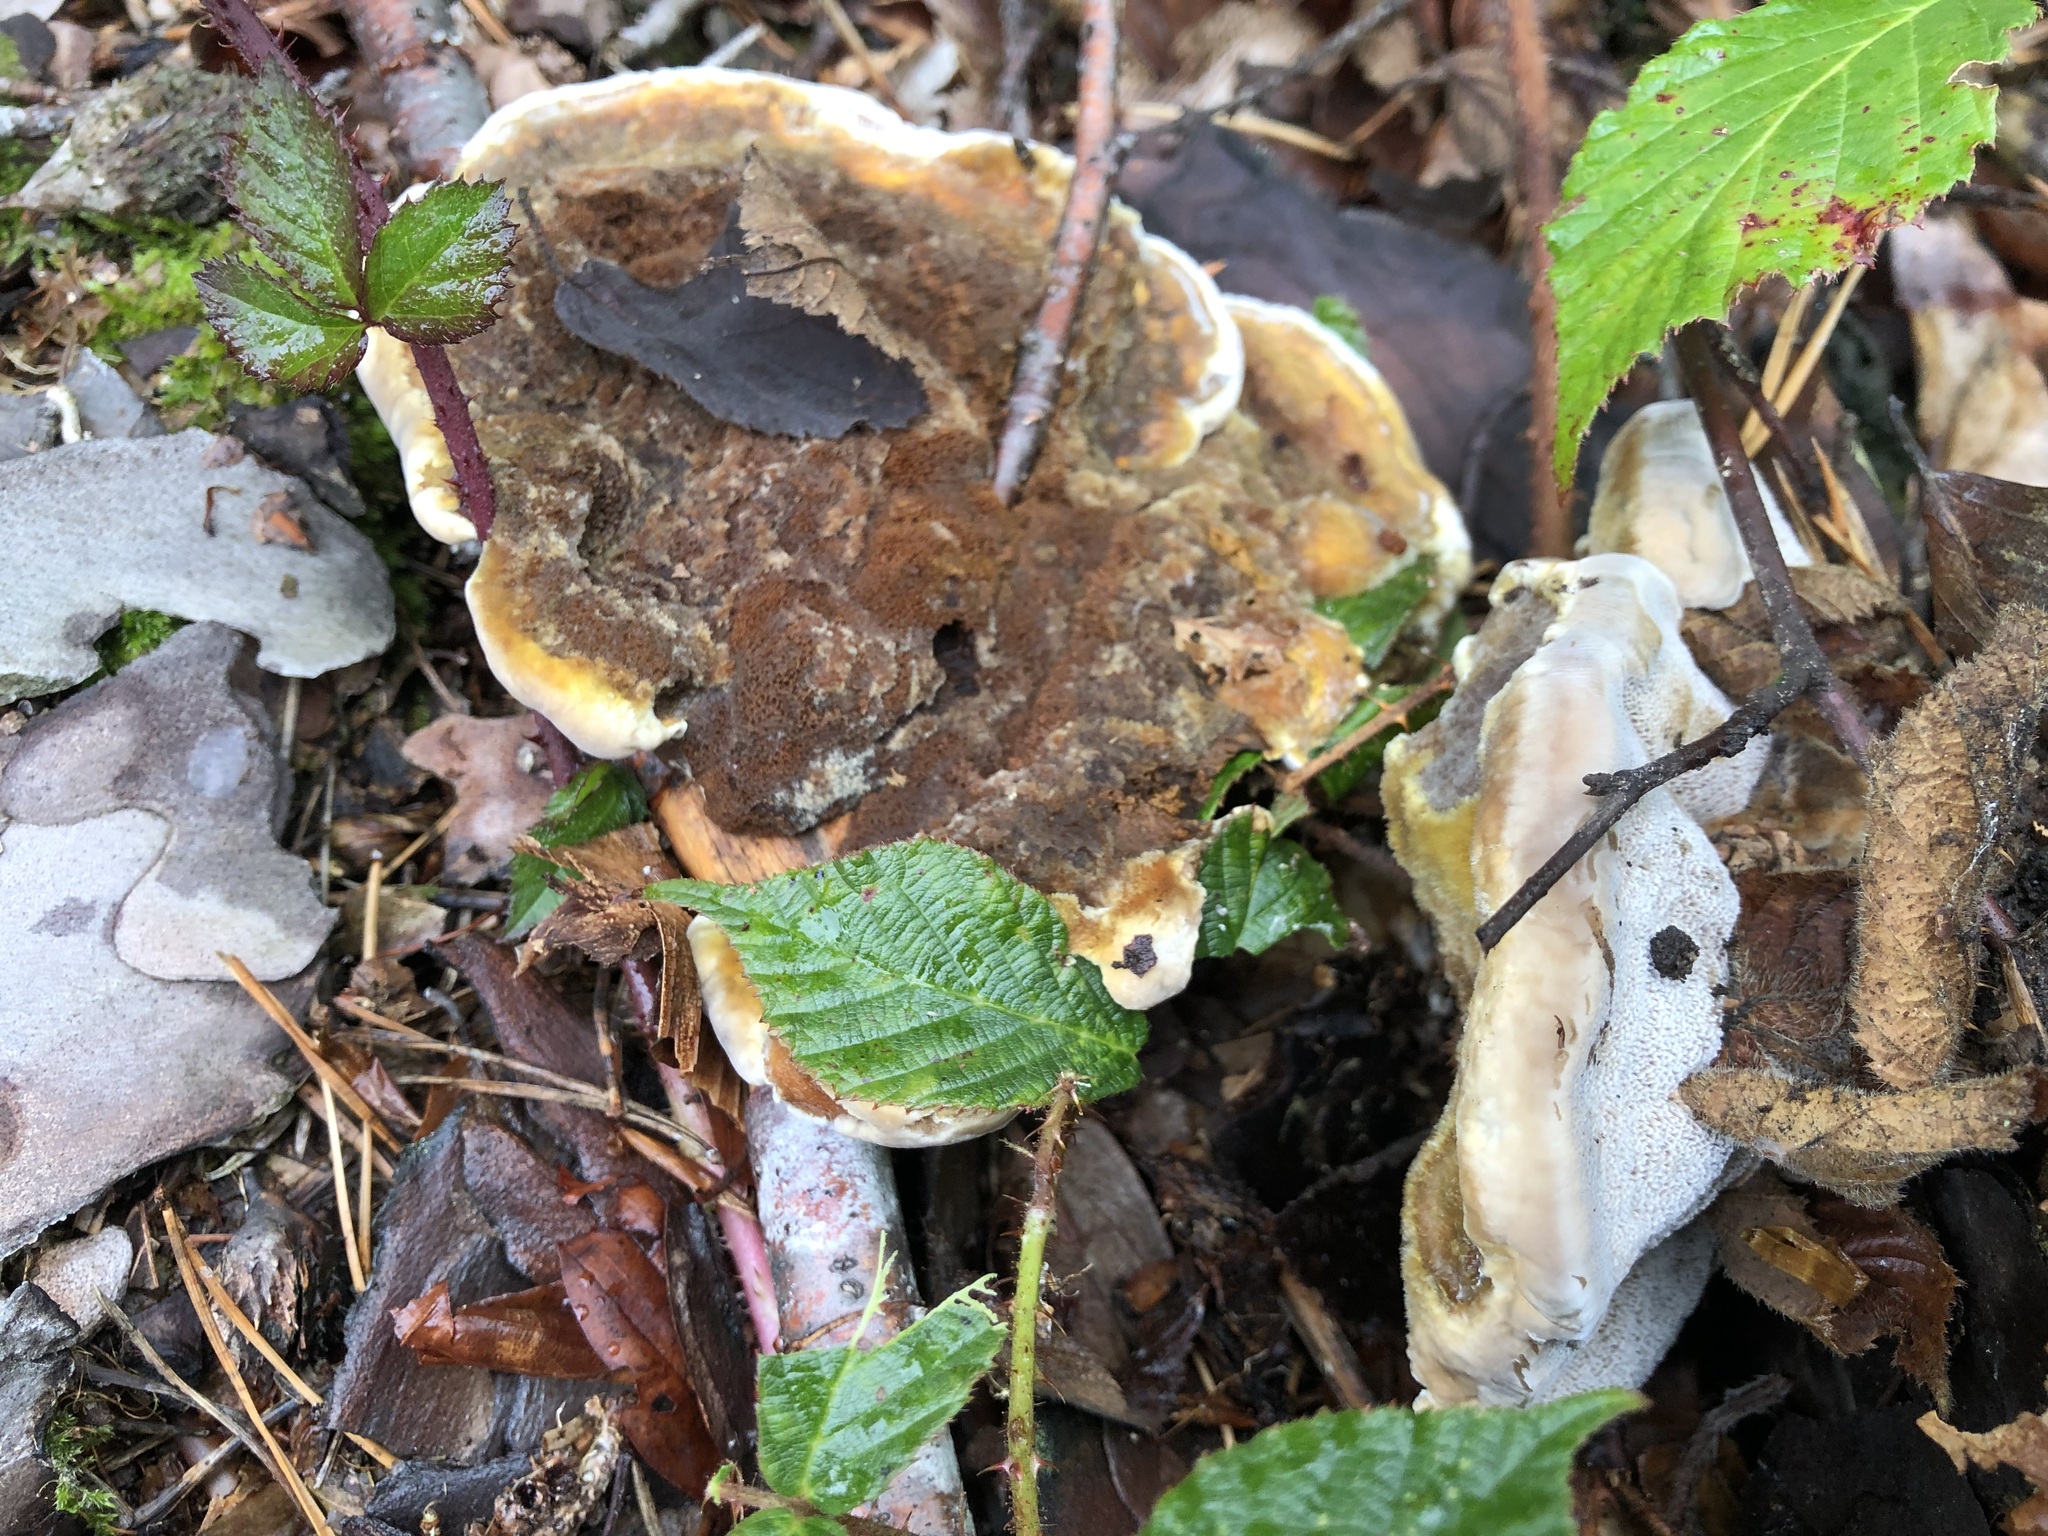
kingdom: Fungi
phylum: Basidiomycota
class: Agaricomycetes
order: Hymenochaetales
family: Hymenochaetaceae
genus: Onnia
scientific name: Onnia tomentosa
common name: Velvet rosette
